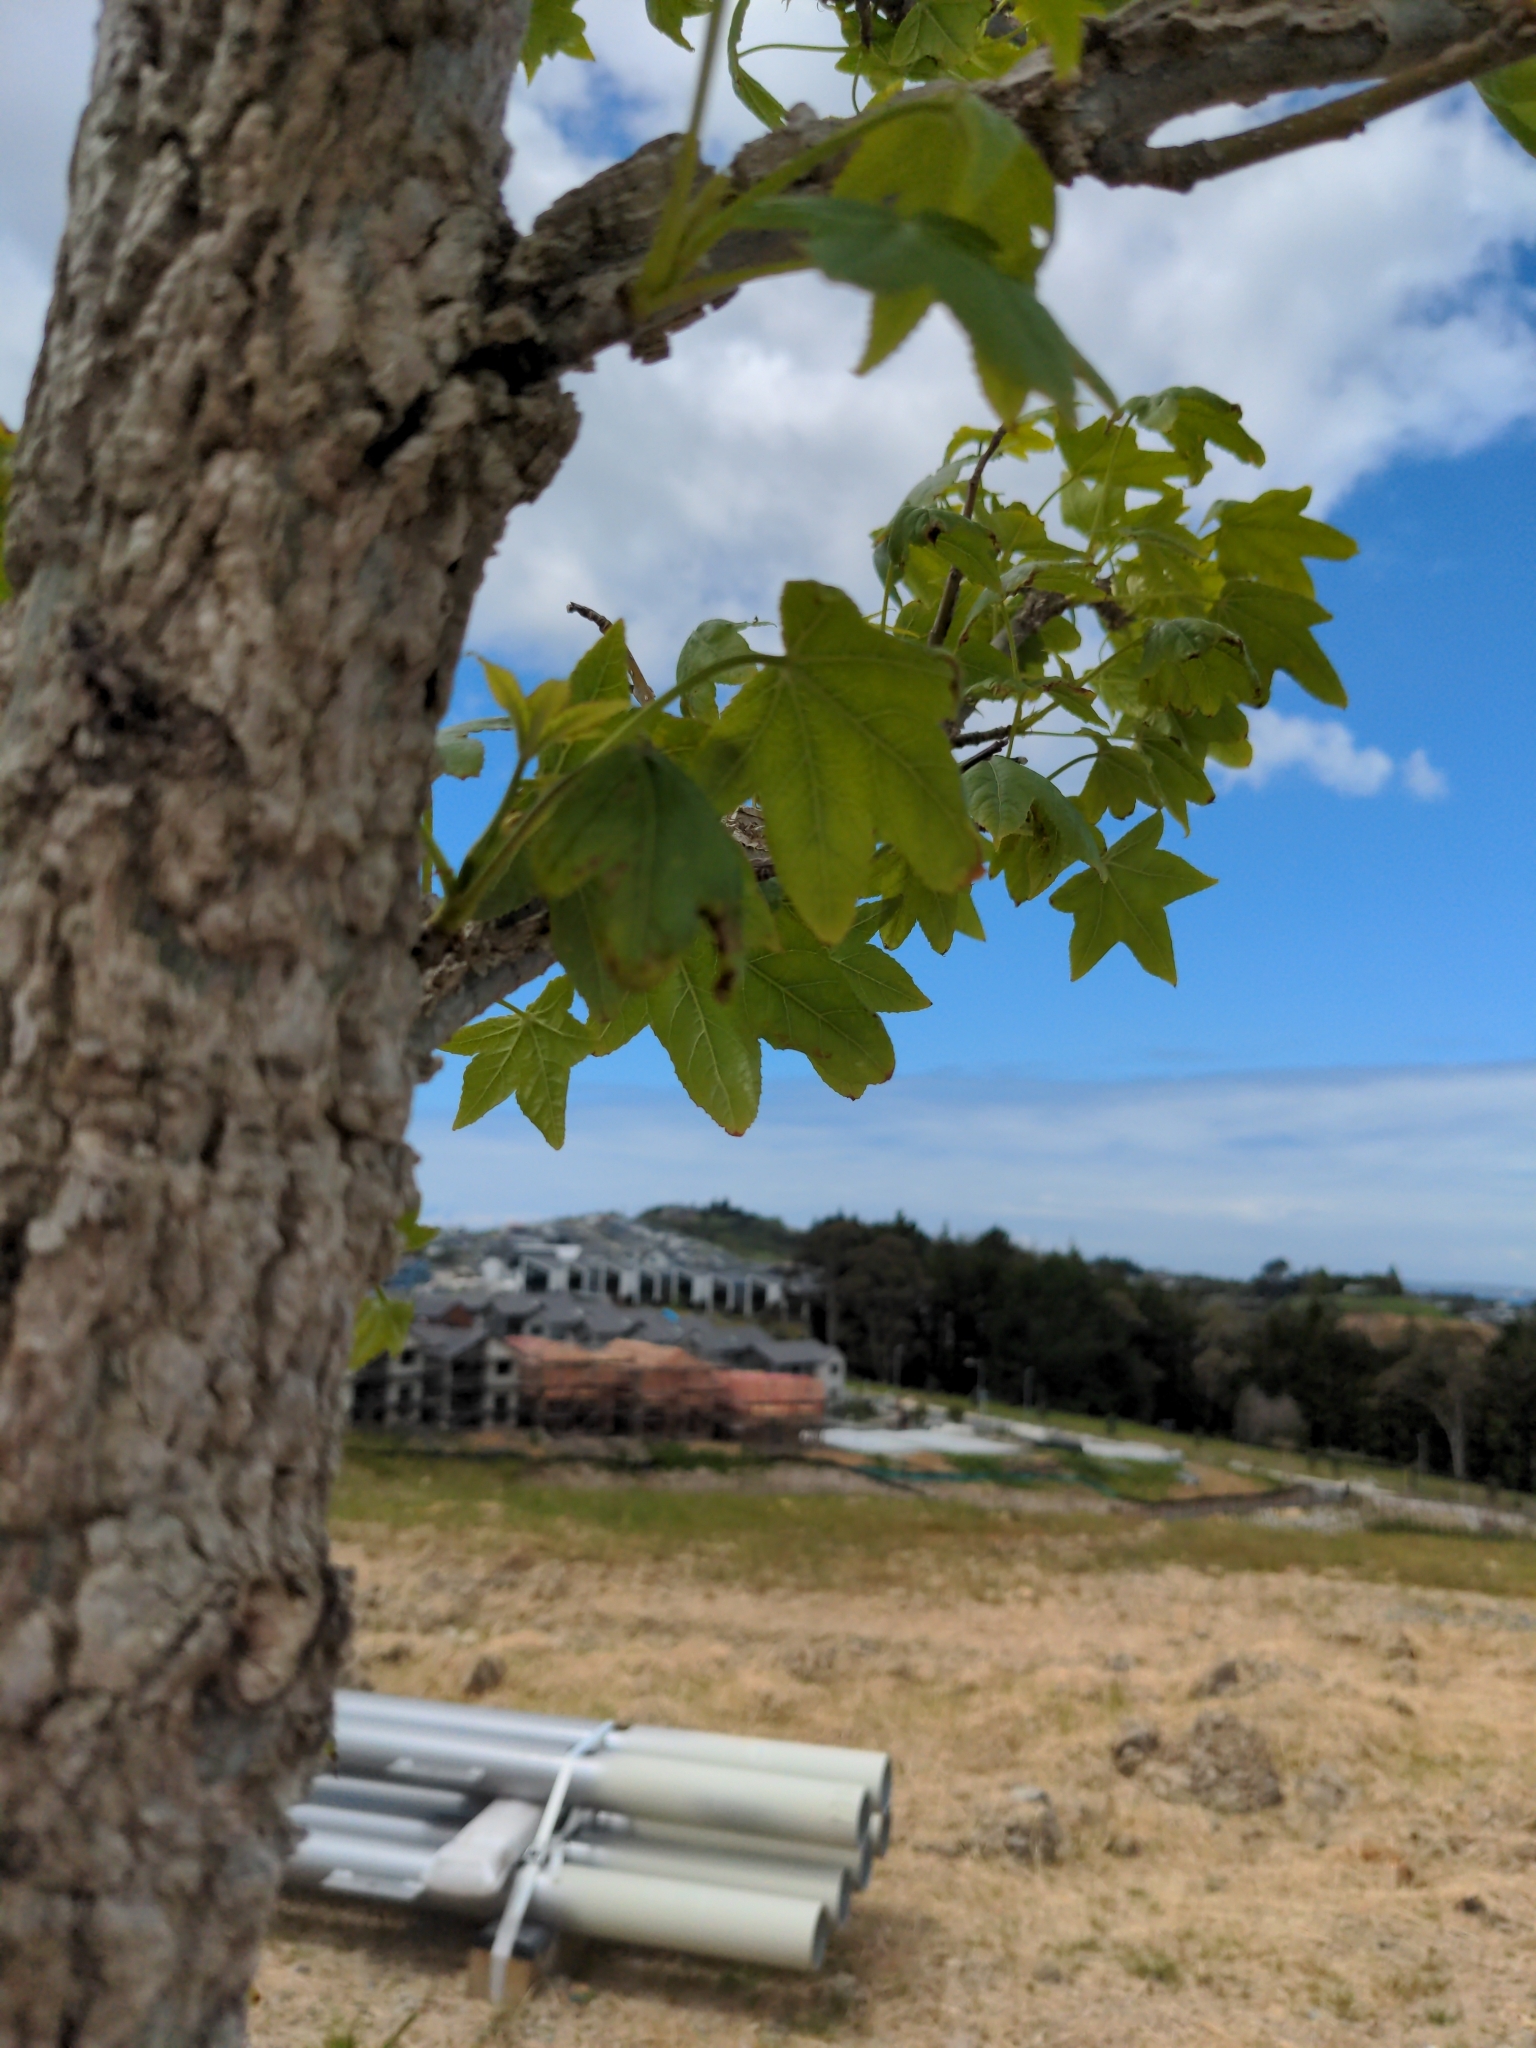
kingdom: Plantae
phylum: Tracheophyta
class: Magnoliopsida
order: Saxifragales
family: Altingiaceae
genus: Liquidambar
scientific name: Liquidambar styraciflua
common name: Sweet gum
